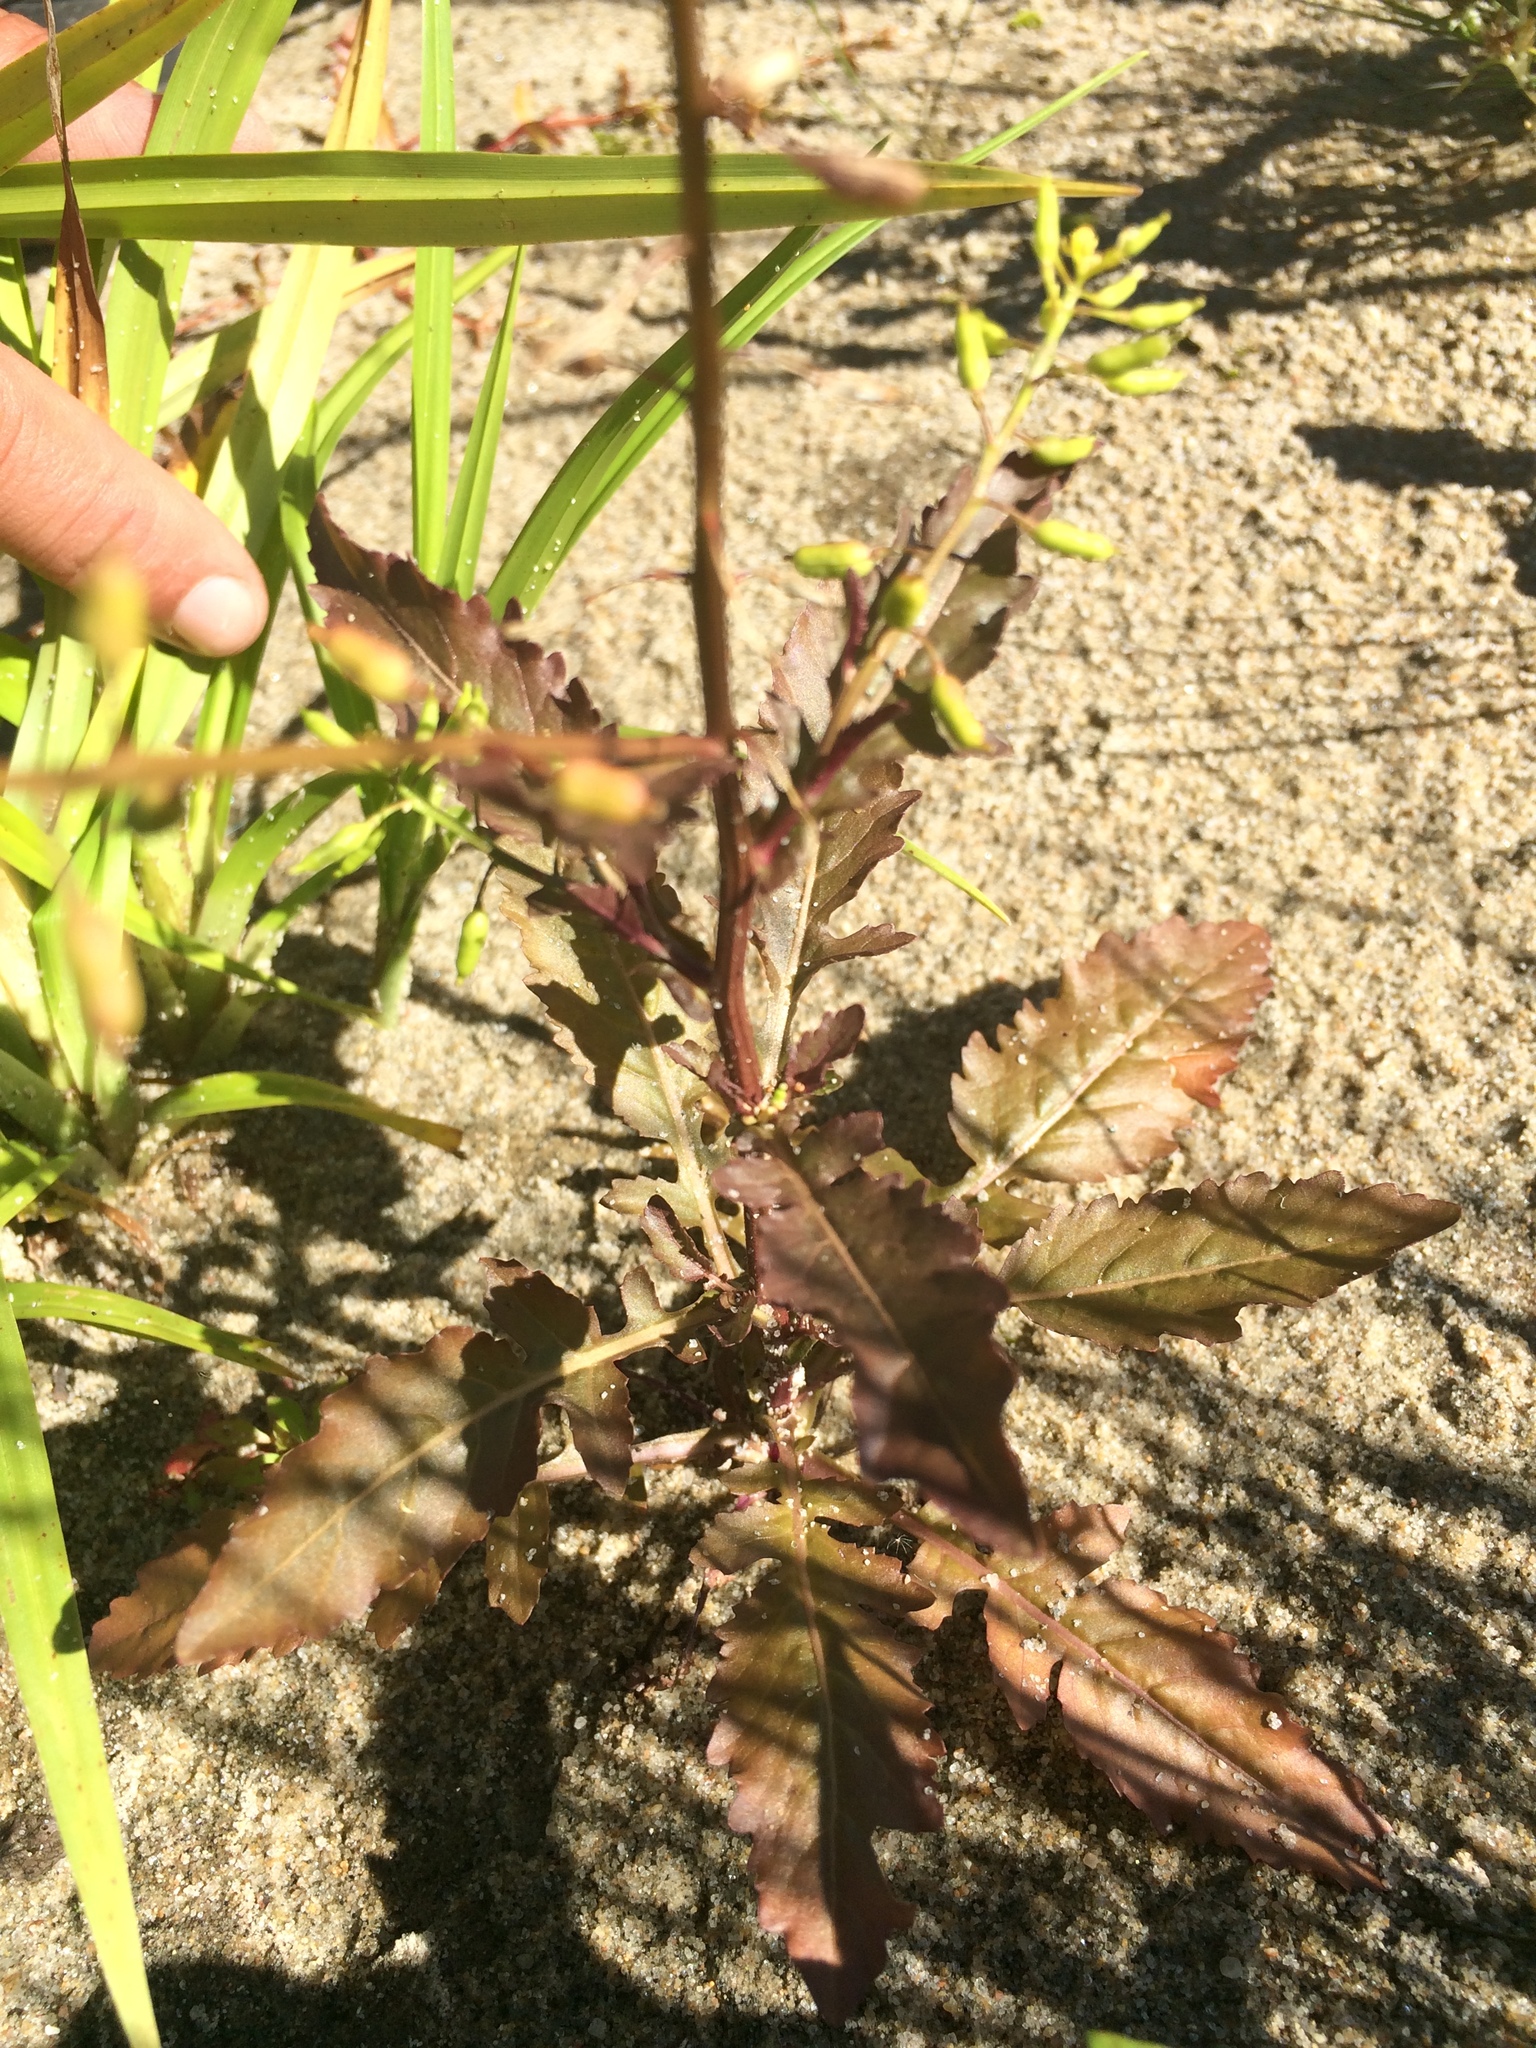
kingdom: Plantae
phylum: Tracheophyta
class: Magnoliopsida
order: Brassicales
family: Brassicaceae
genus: Rorippa
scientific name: Rorippa palustris
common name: Marsh yellow-cress
